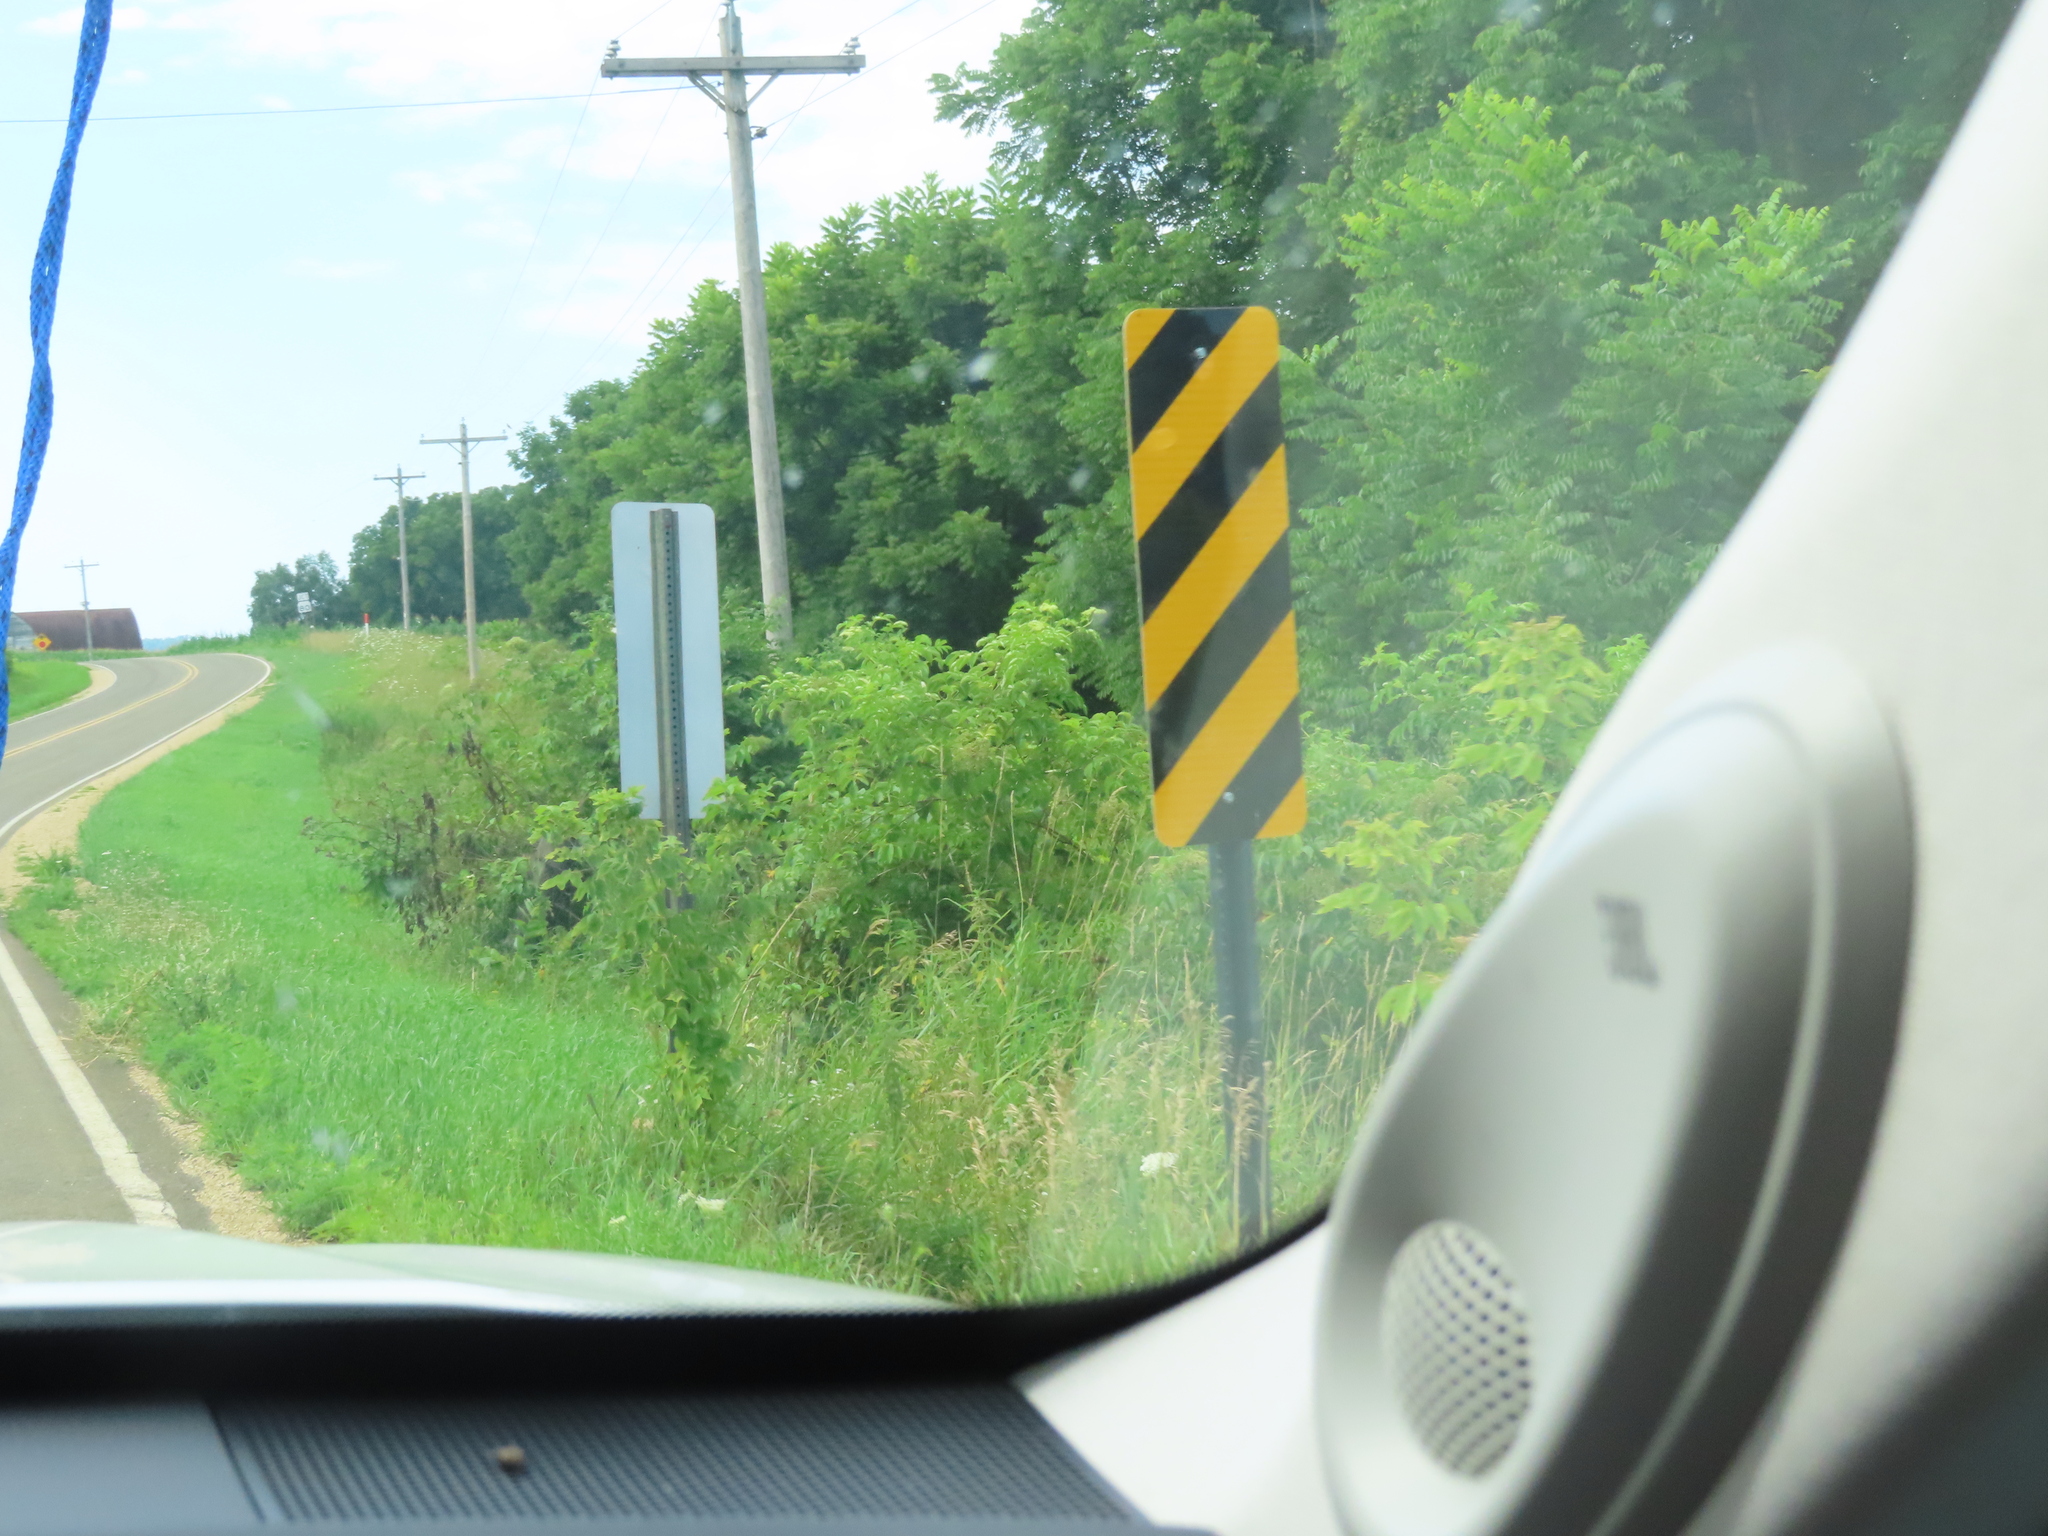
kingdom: Plantae
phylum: Tracheophyta
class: Magnoliopsida
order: Sapindales
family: Sapindaceae
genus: Acer
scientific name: Acer negundo
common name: Ashleaf maple
